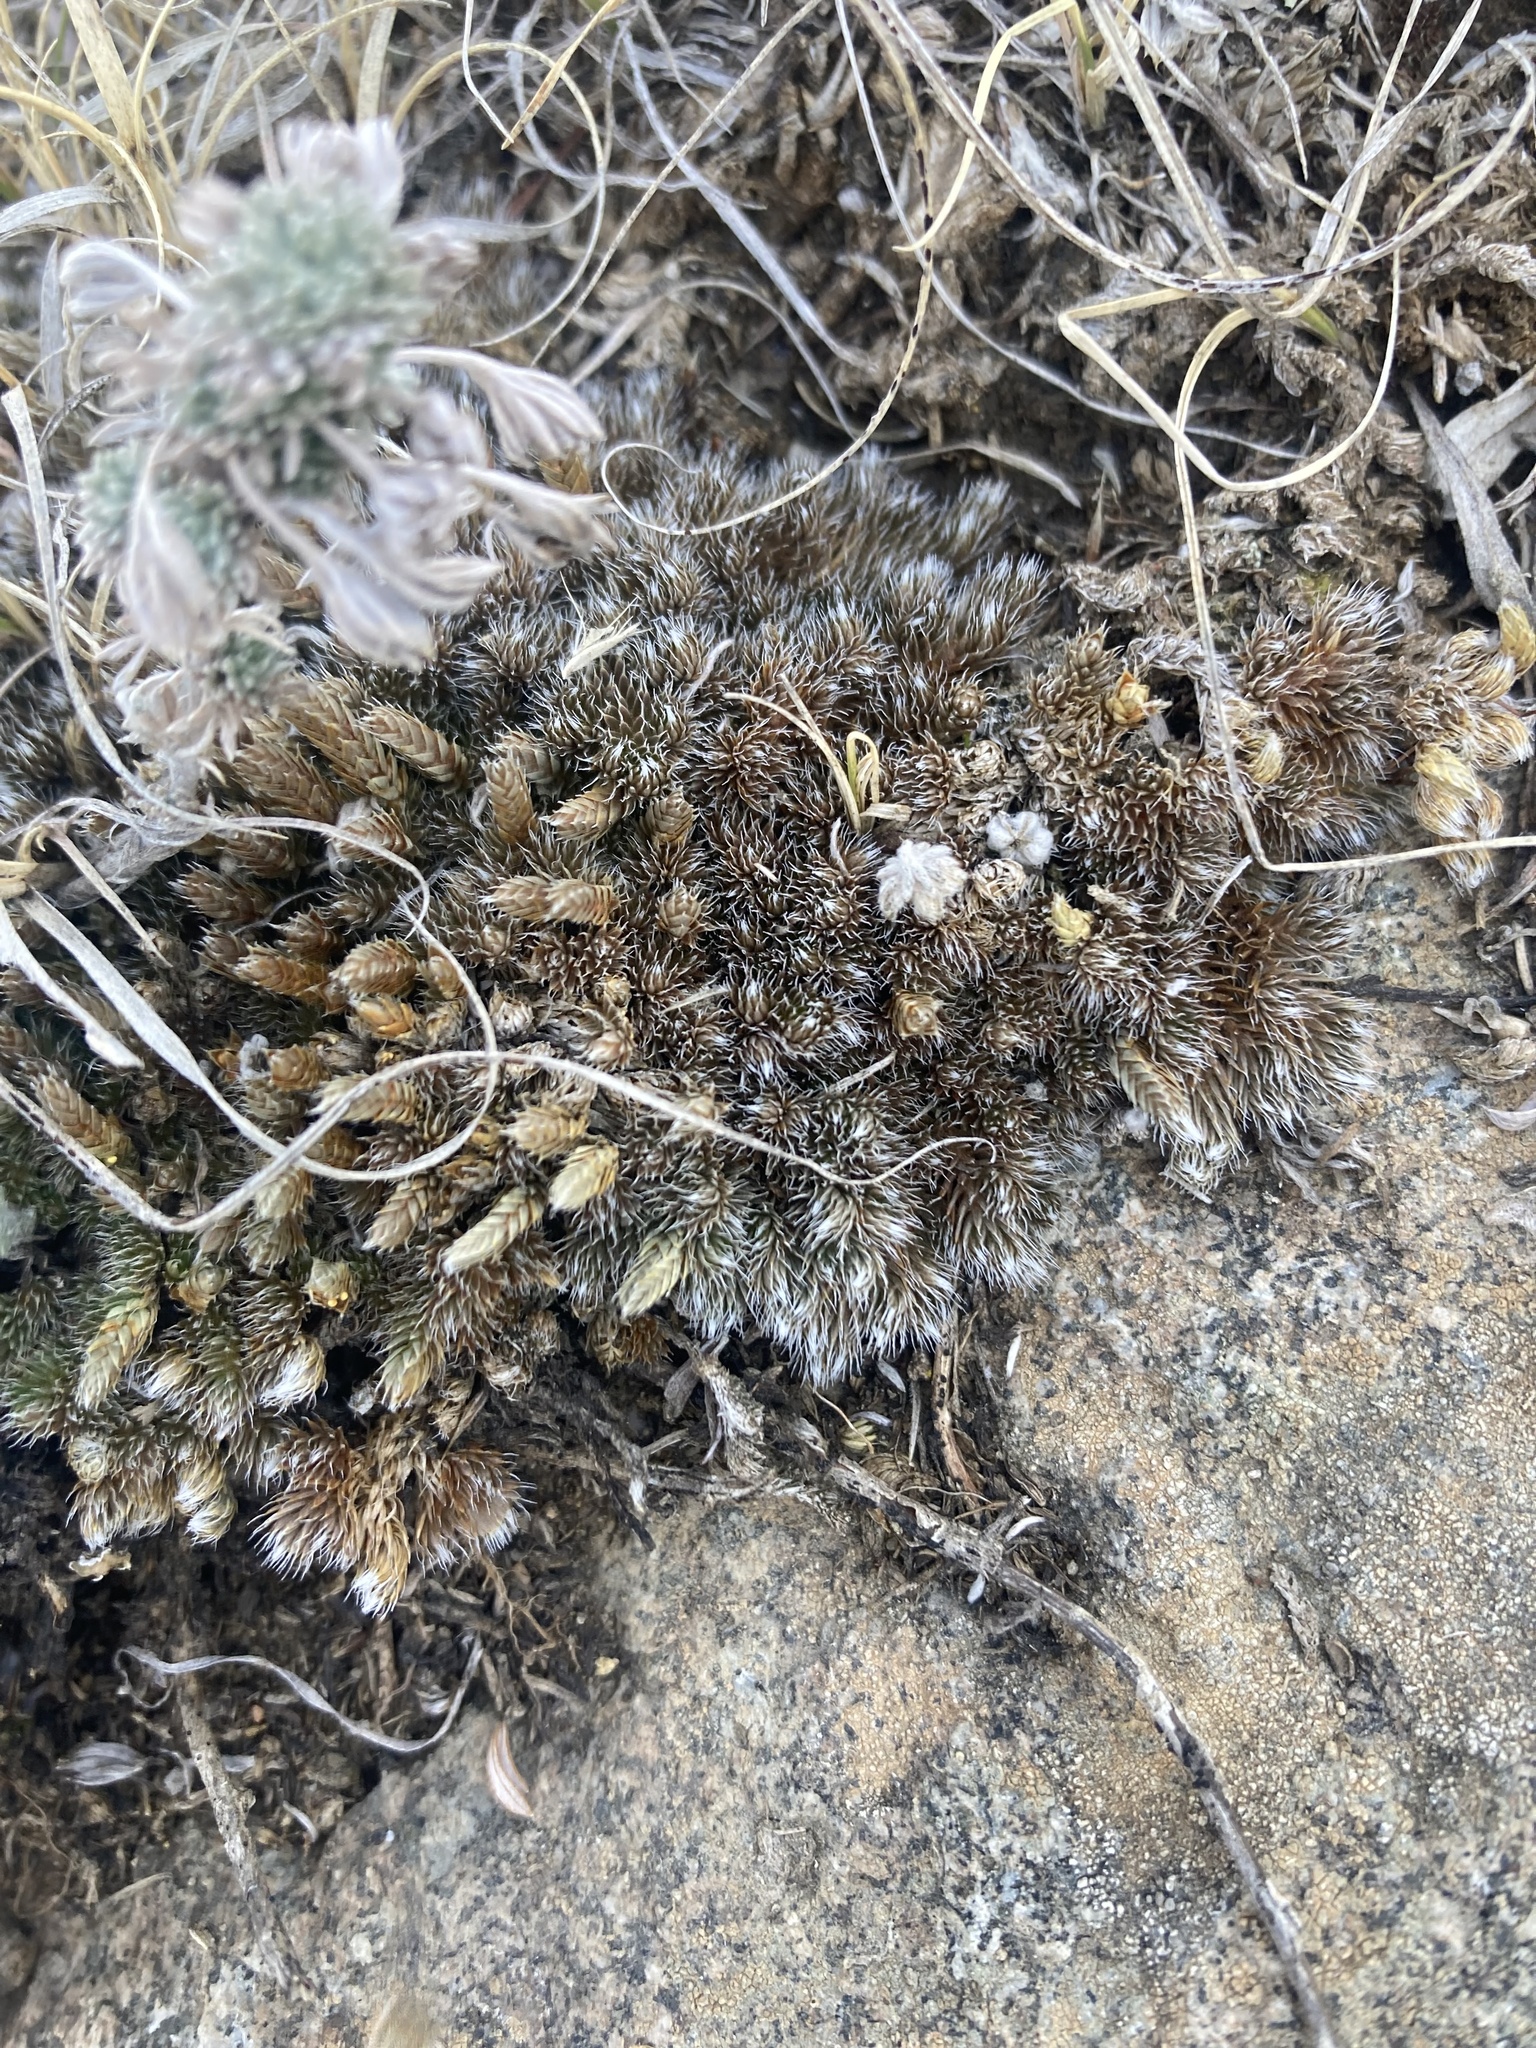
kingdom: Plantae
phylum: Tracheophyta
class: Lycopodiopsida
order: Selaginellales
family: Selaginellaceae
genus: Selaginella
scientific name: Selaginella densa
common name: Mountain spike-moss
